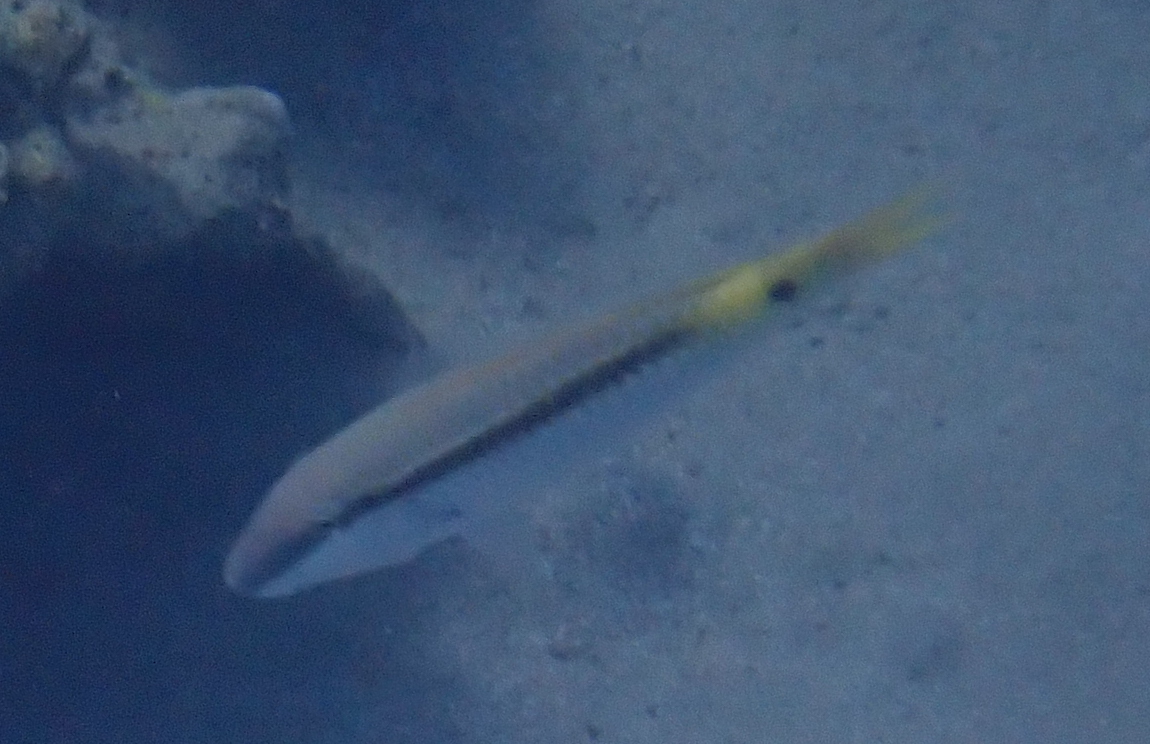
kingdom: Animalia
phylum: Chordata
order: Perciformes
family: Mullidae
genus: Parupeneus
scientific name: Parupeneus forsskali
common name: Red sea goatfish
